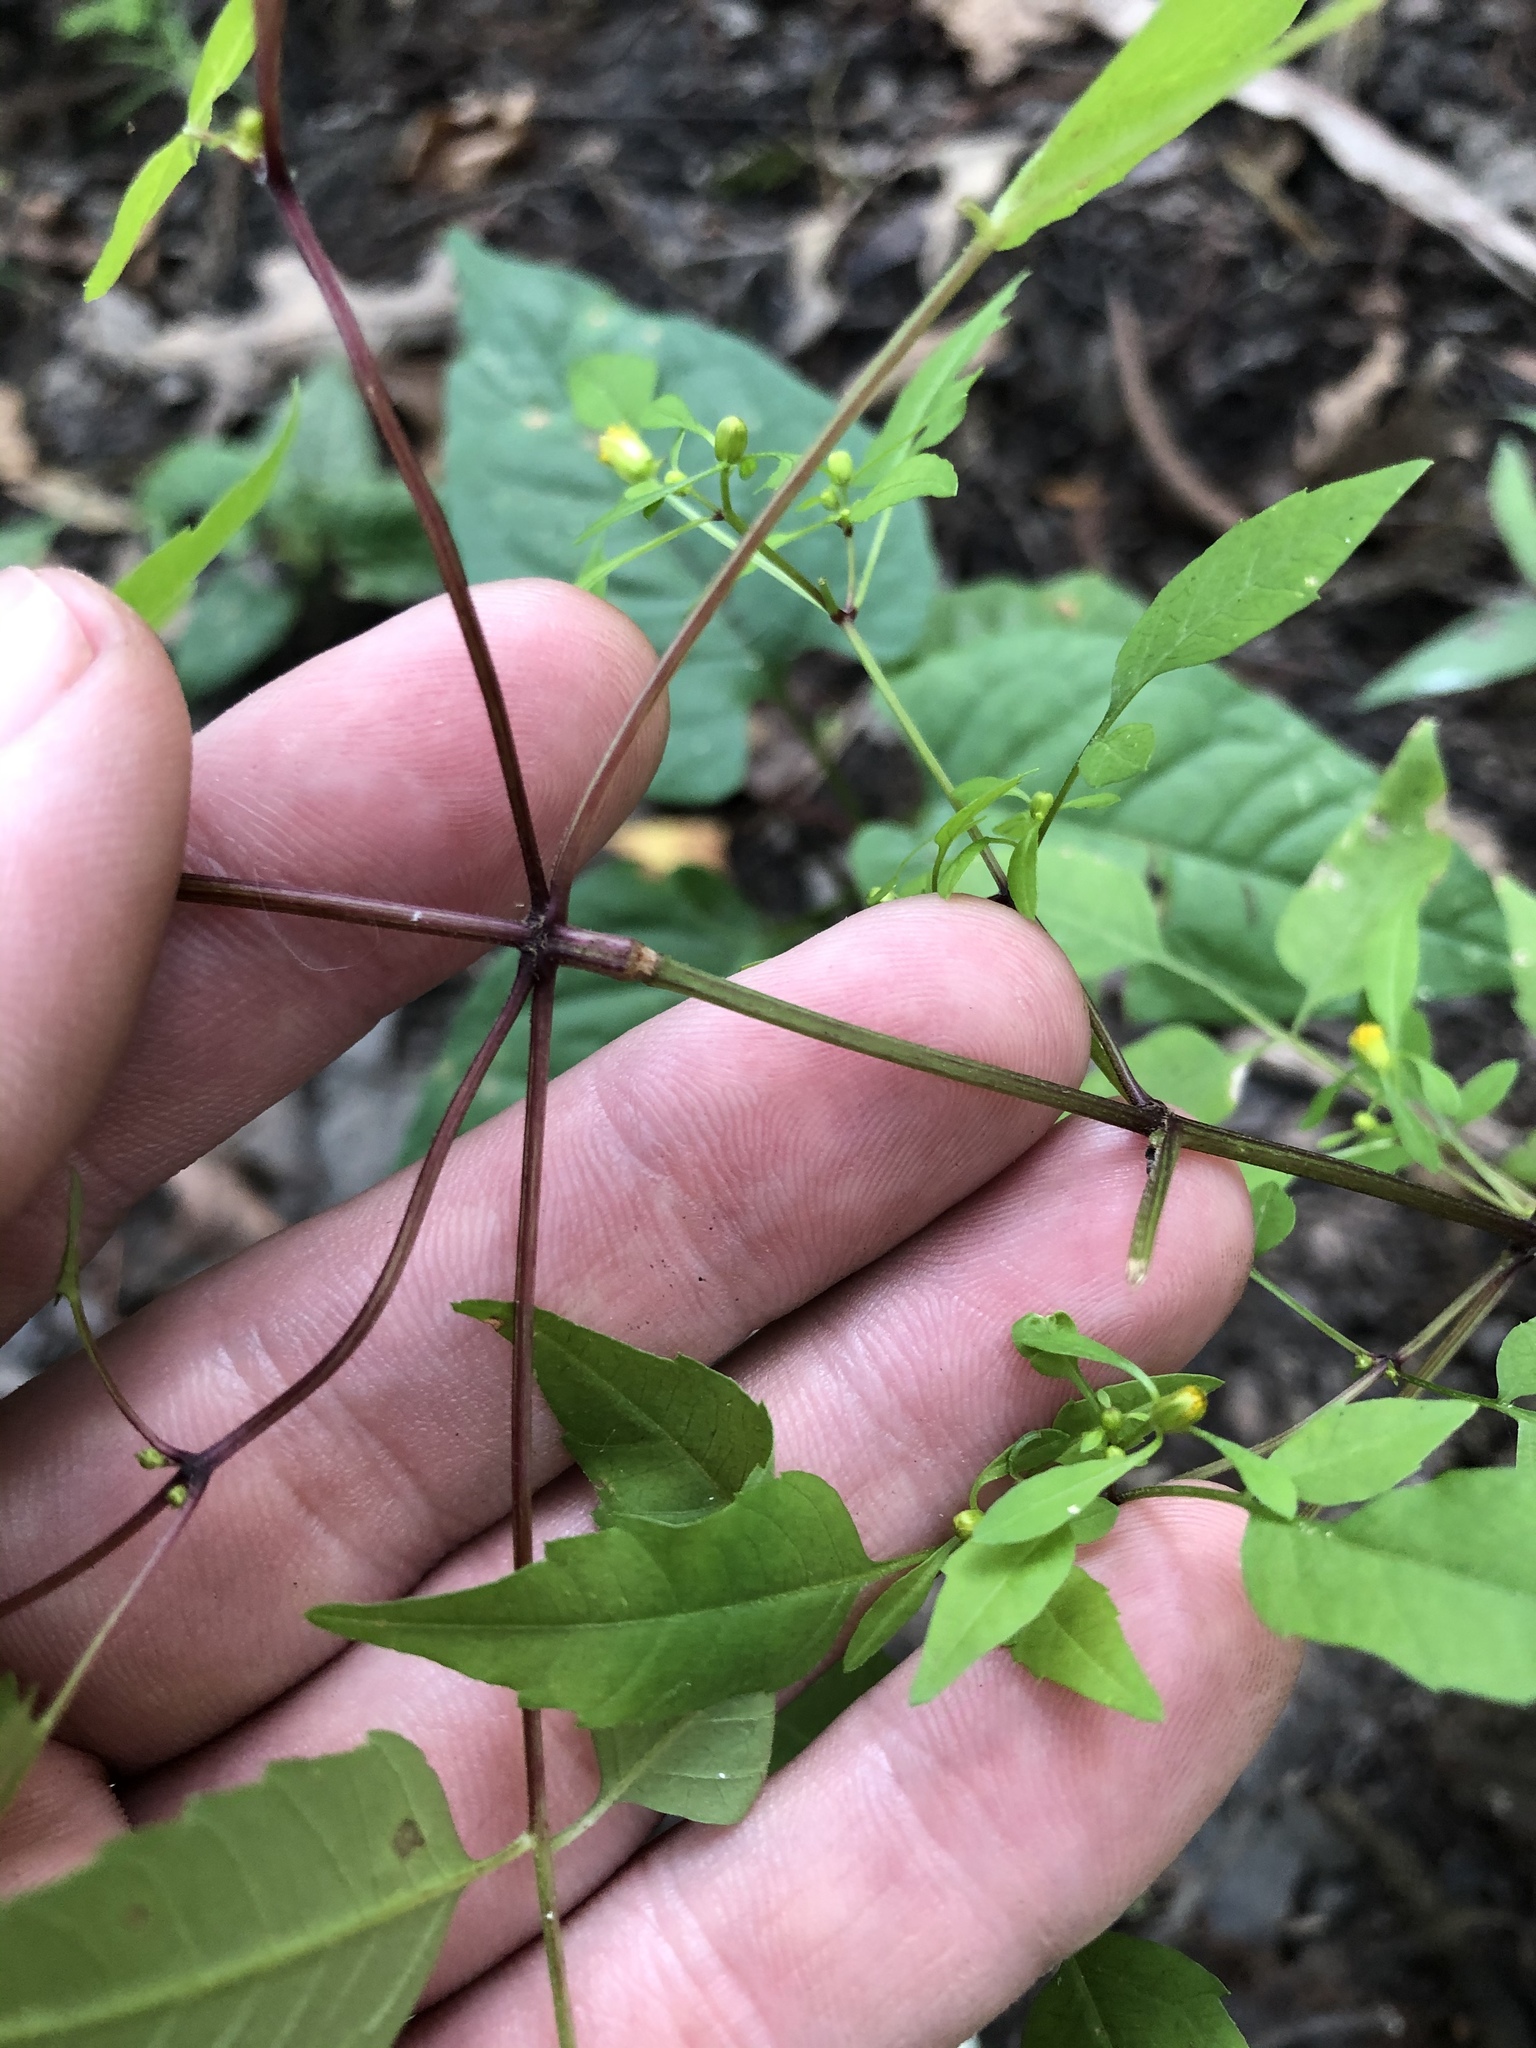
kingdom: Plantae
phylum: Tracheophyta
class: Magnoliopsida
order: Asterales
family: Asteraceae
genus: Bidens
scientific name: Bidens discoidea
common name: Discoide beggarticks
